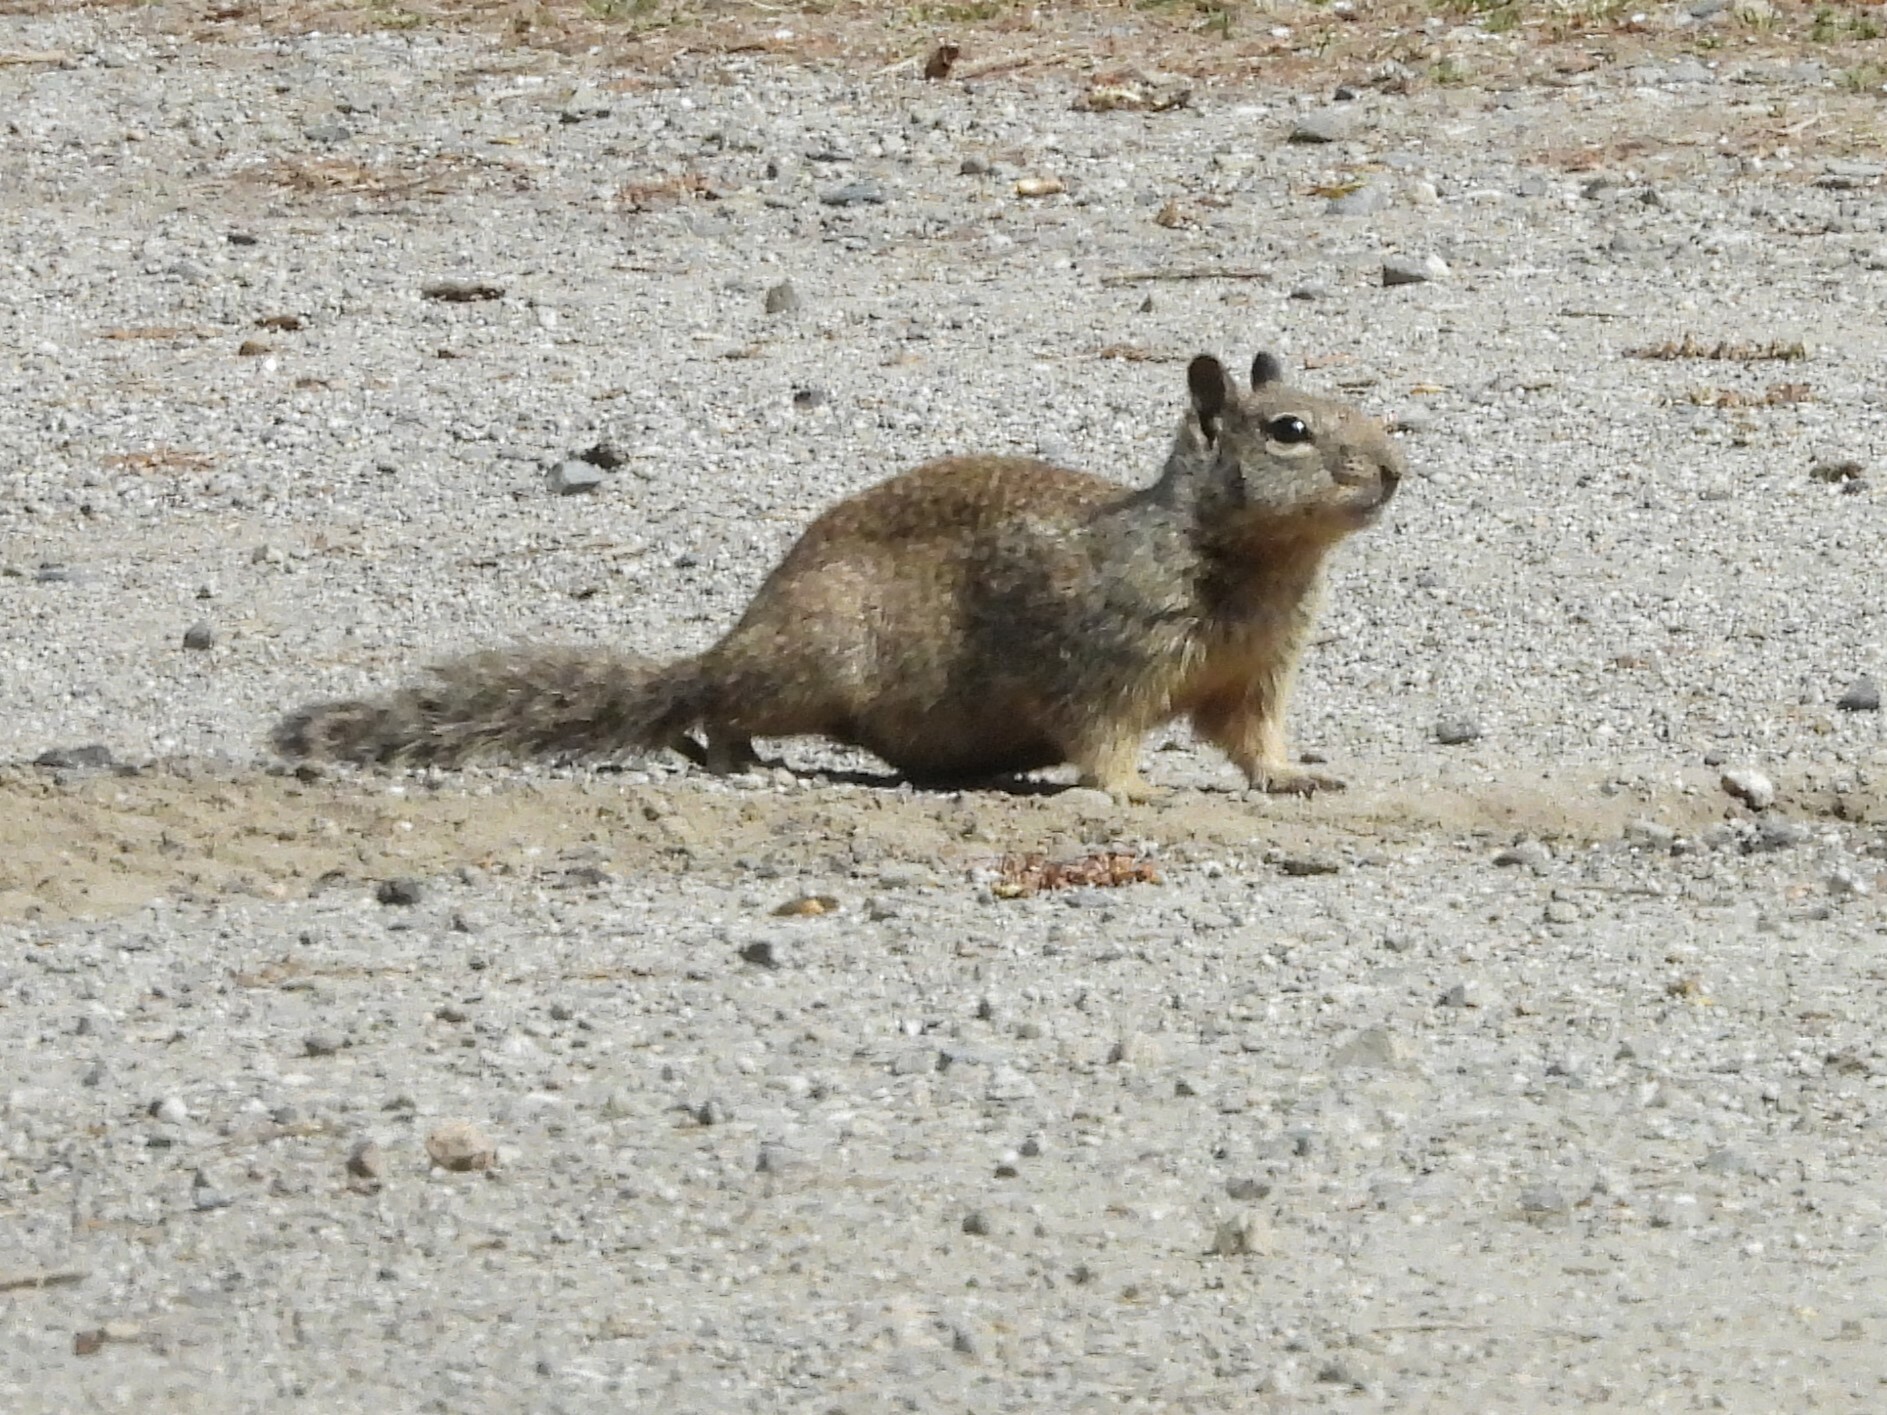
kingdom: Animalia
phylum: Chordata
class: Mammalia
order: Rodentia
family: Sciuridae
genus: Otospermophilus
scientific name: Otospermophilus beecheyi
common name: California ground squirrel
